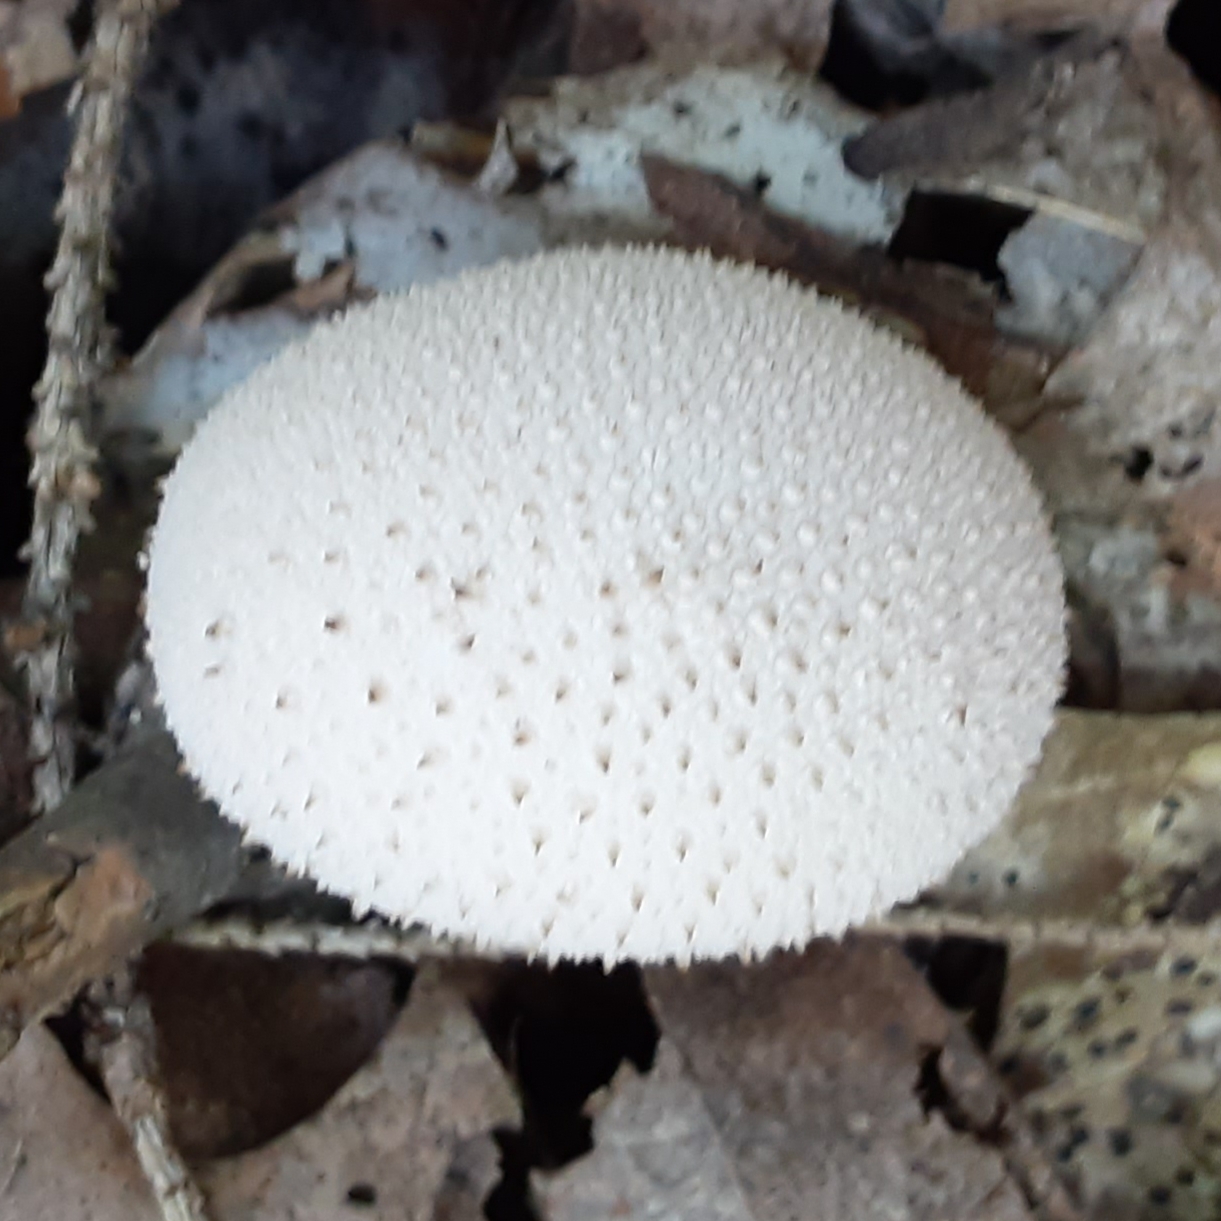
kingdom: Fungi
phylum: Basidiomycota
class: Agaricomycetes
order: Agaricales
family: Lycoperdaceae
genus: Lycoperdon
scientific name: Lycoperdon perlatum
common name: Common puffball
